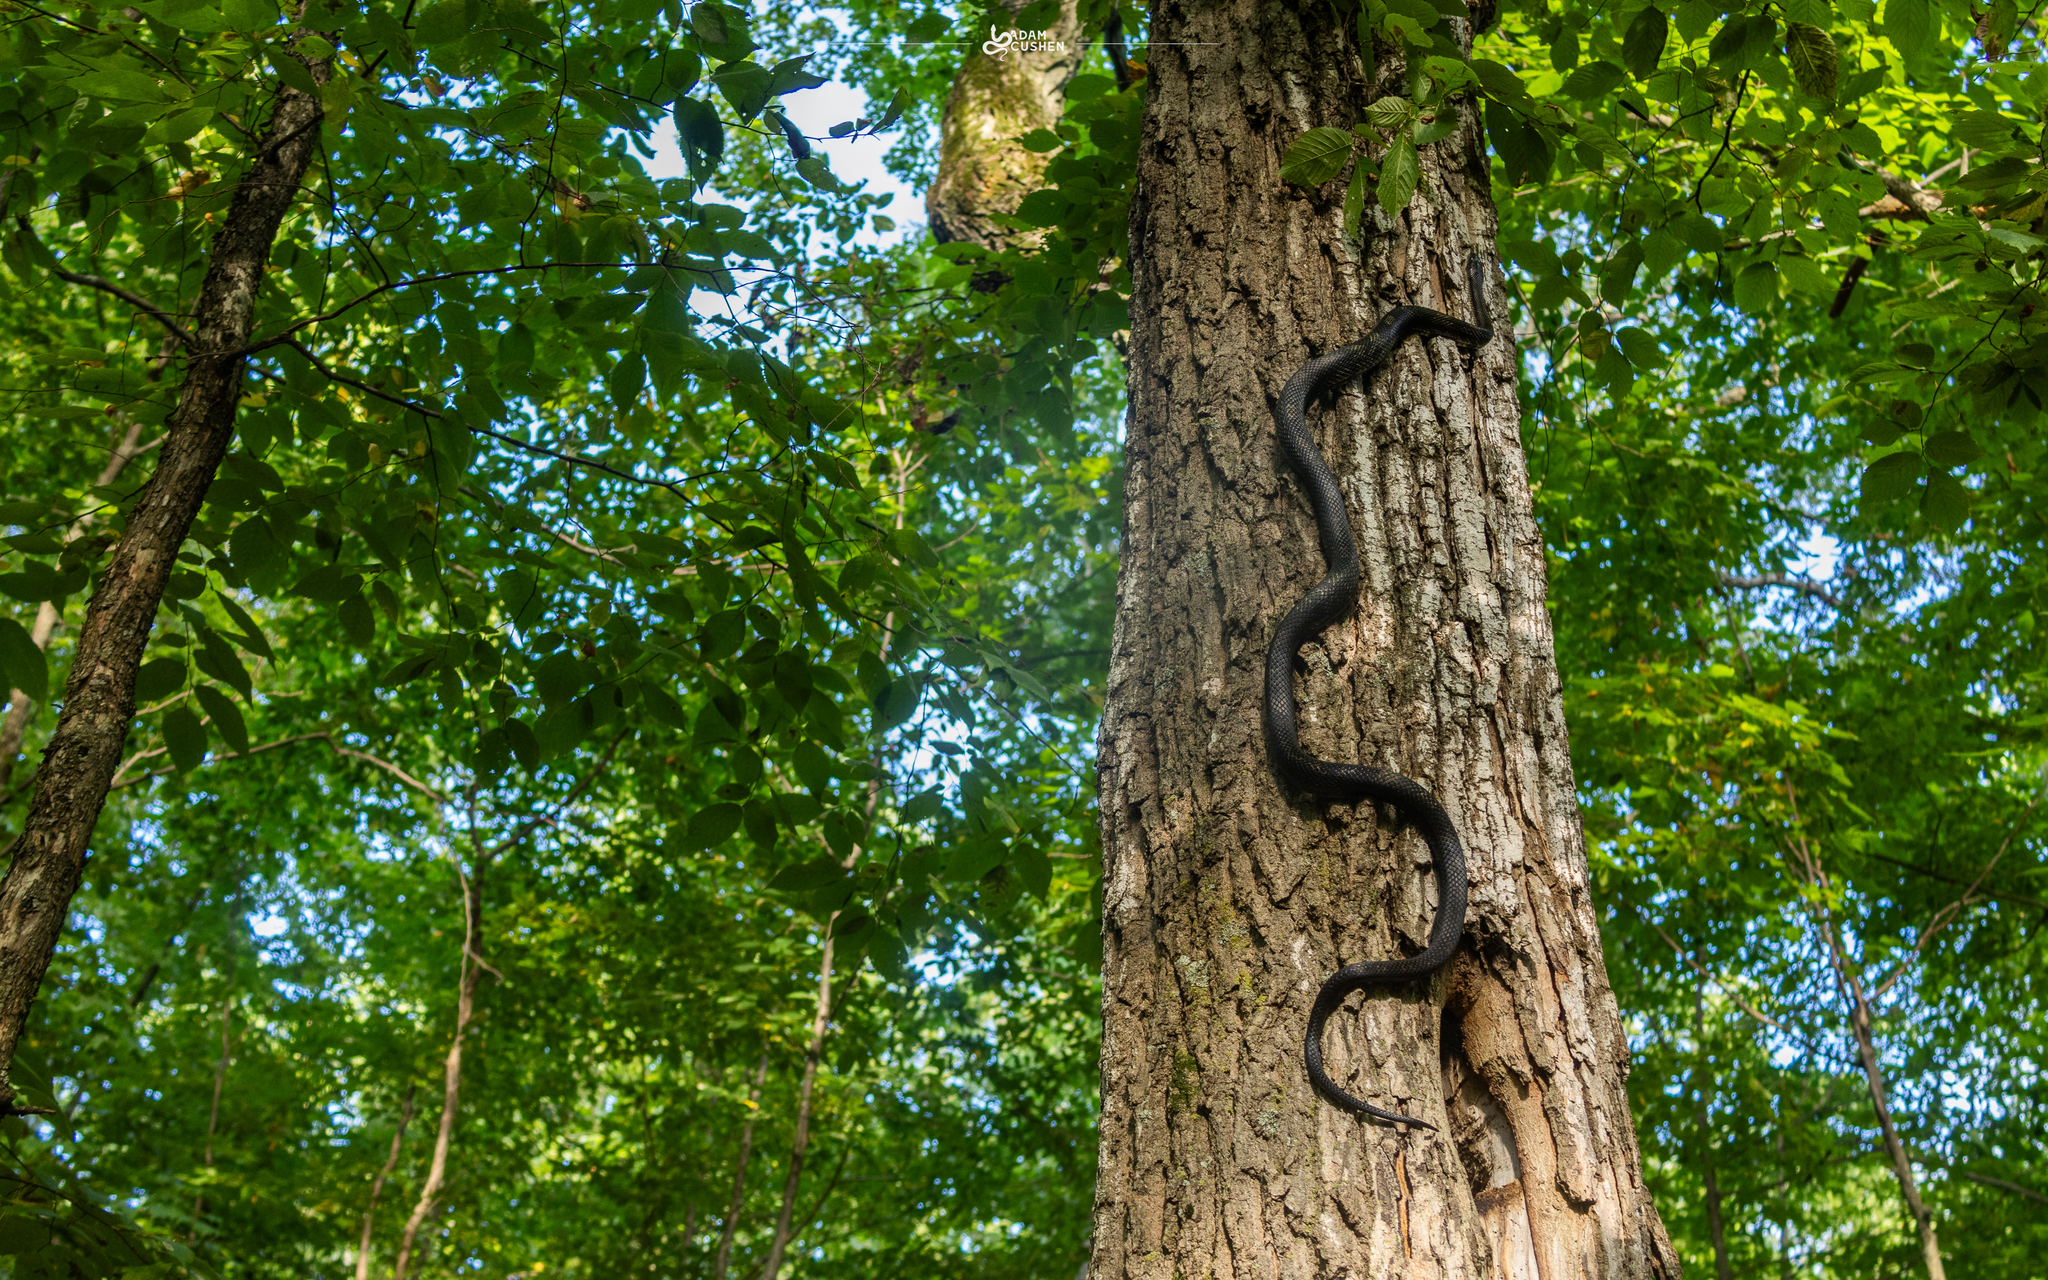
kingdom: Animalia
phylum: Chordata
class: Squamata
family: Colubridae
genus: Pantherophis
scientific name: Pantherophis spiloides
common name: Gray rat snake
